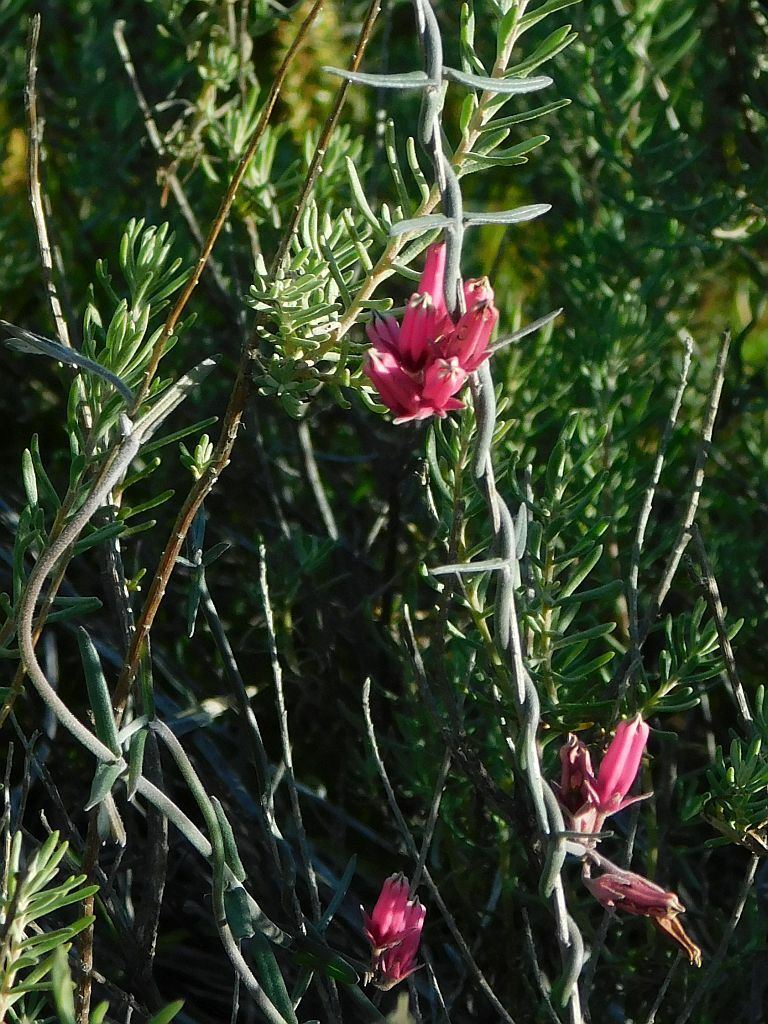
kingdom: Plantae
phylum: Tracheophyta
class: Magnoliopsida
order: Gentianales
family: Apocynaceae
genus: Microloma
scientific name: Microloma sagittatum
